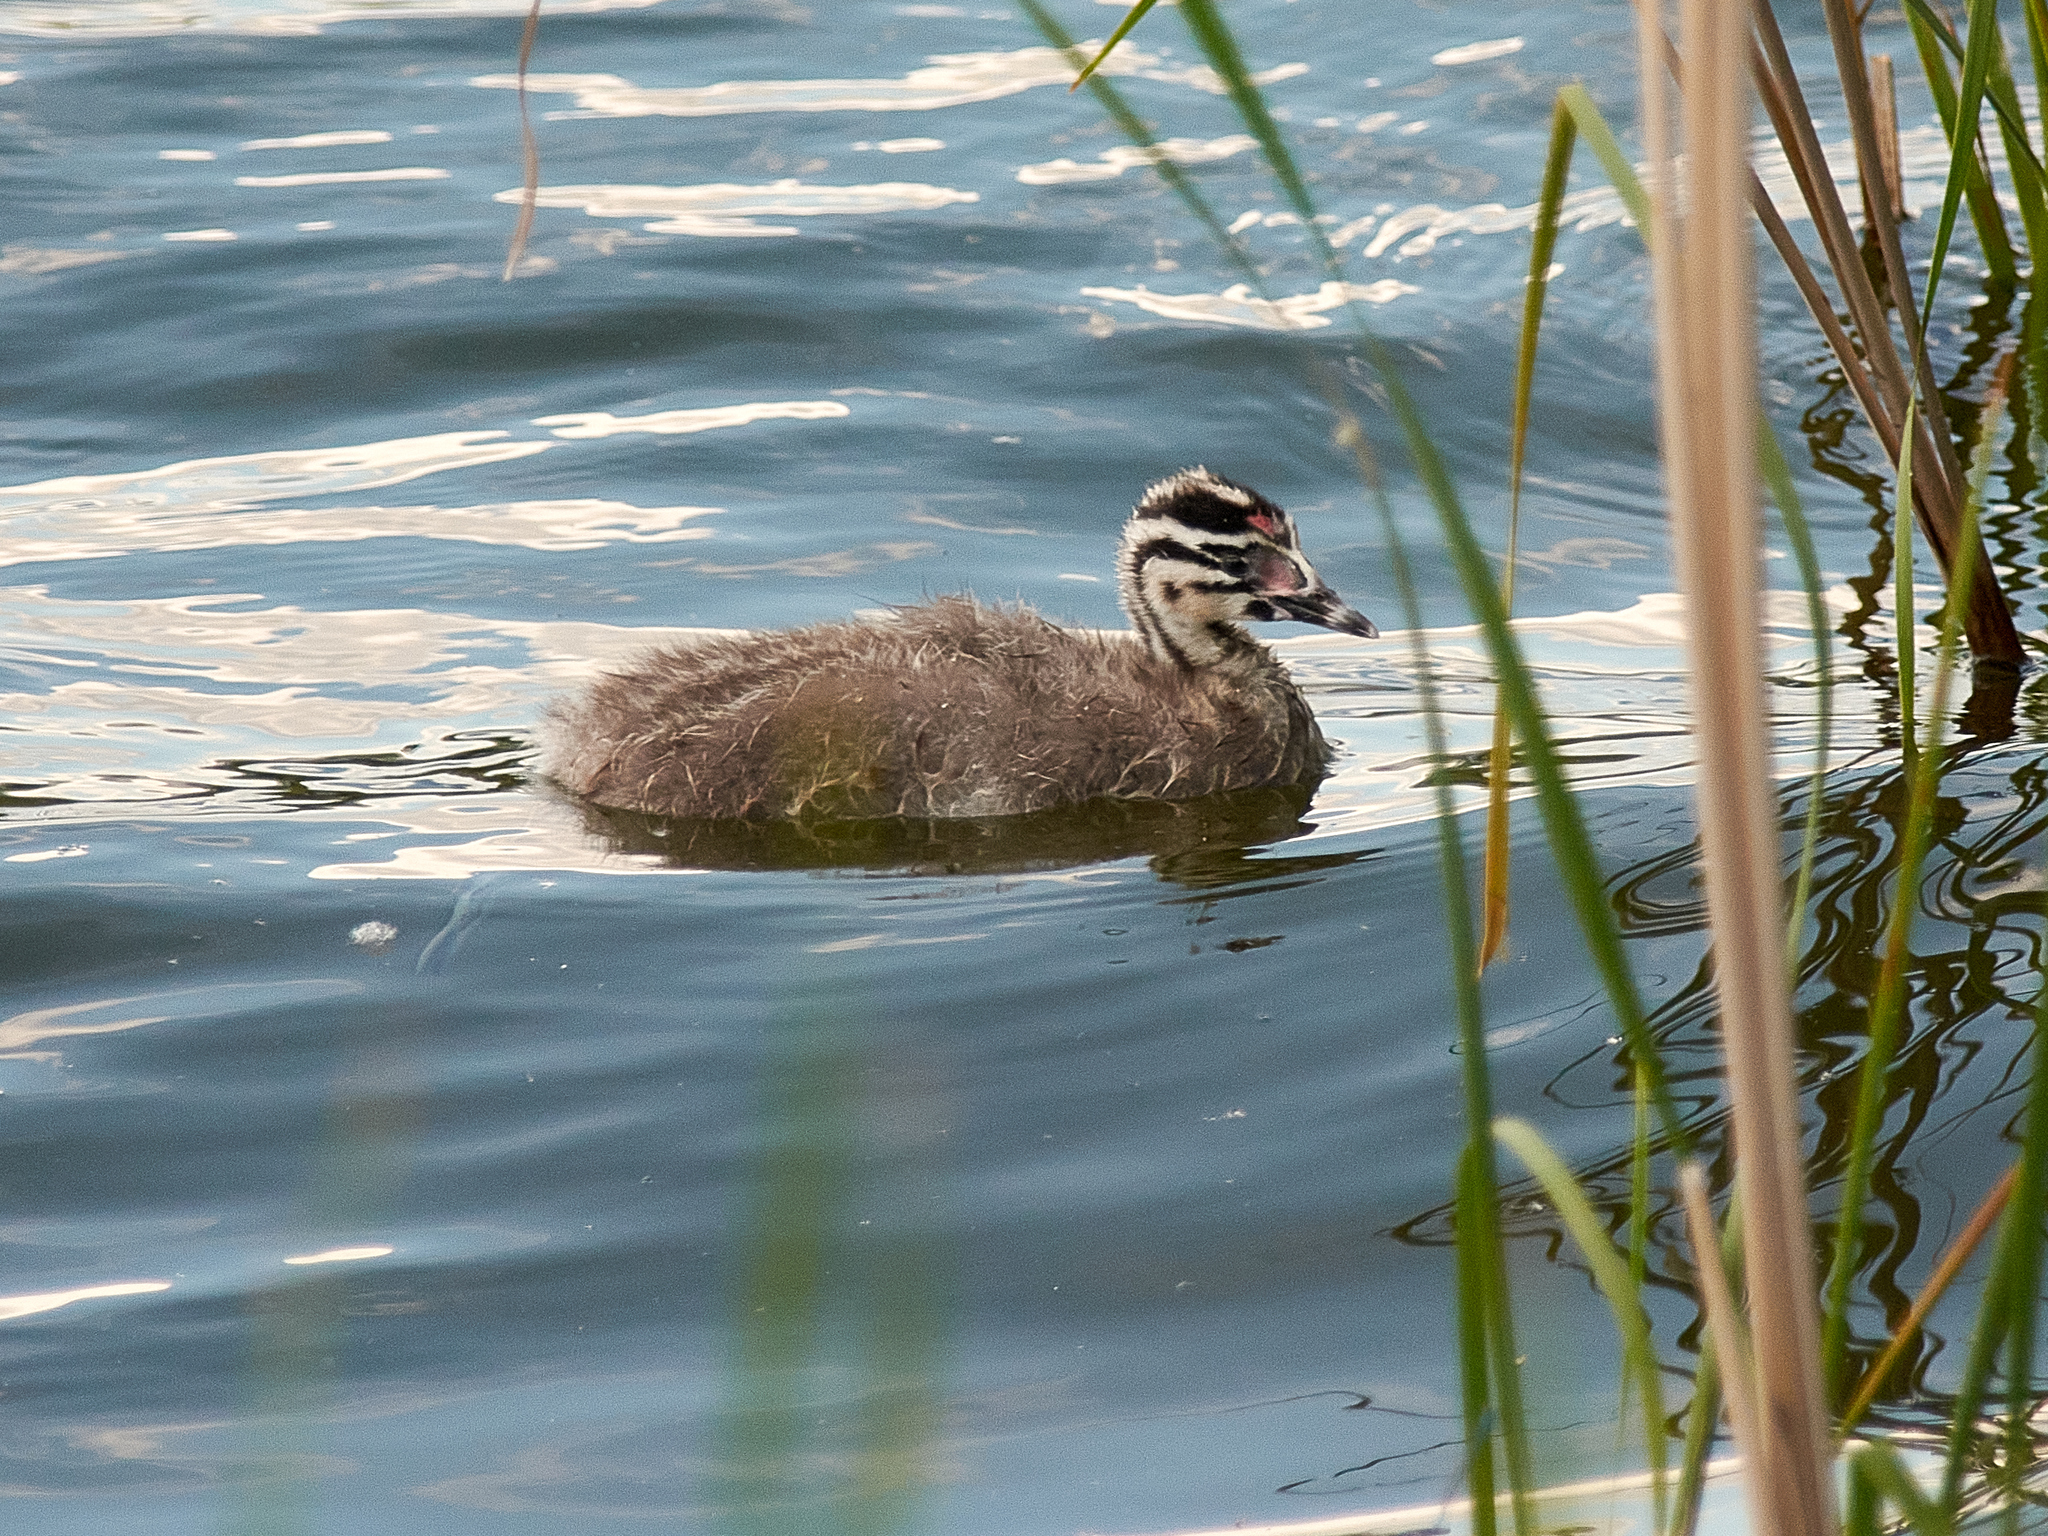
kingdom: Animalia
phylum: Chordata
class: Aves
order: Podicipediformes
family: Podicipedidae
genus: Podiceps
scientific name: Podiceps cristatus
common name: Great crested grebe
